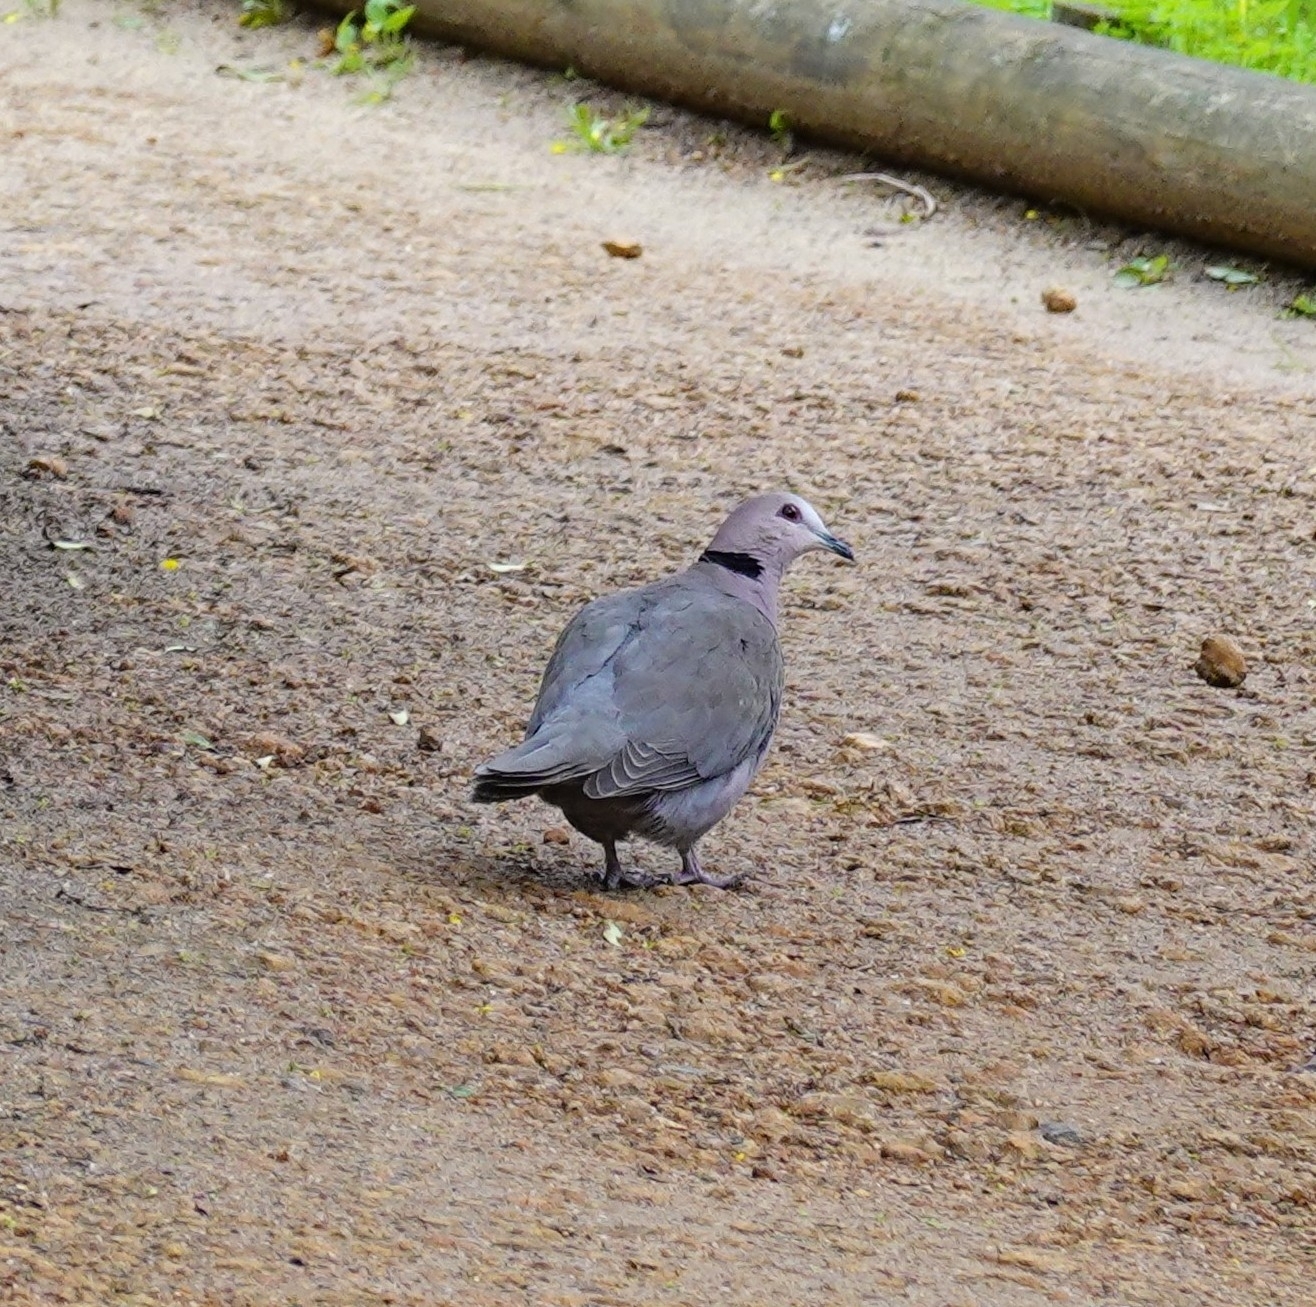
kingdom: Animalia
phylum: Chordata
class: Aves
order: Columbiformes
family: Columbidae
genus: Streptopelia
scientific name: Streptopelia semitorquata
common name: Red-eyed dove
